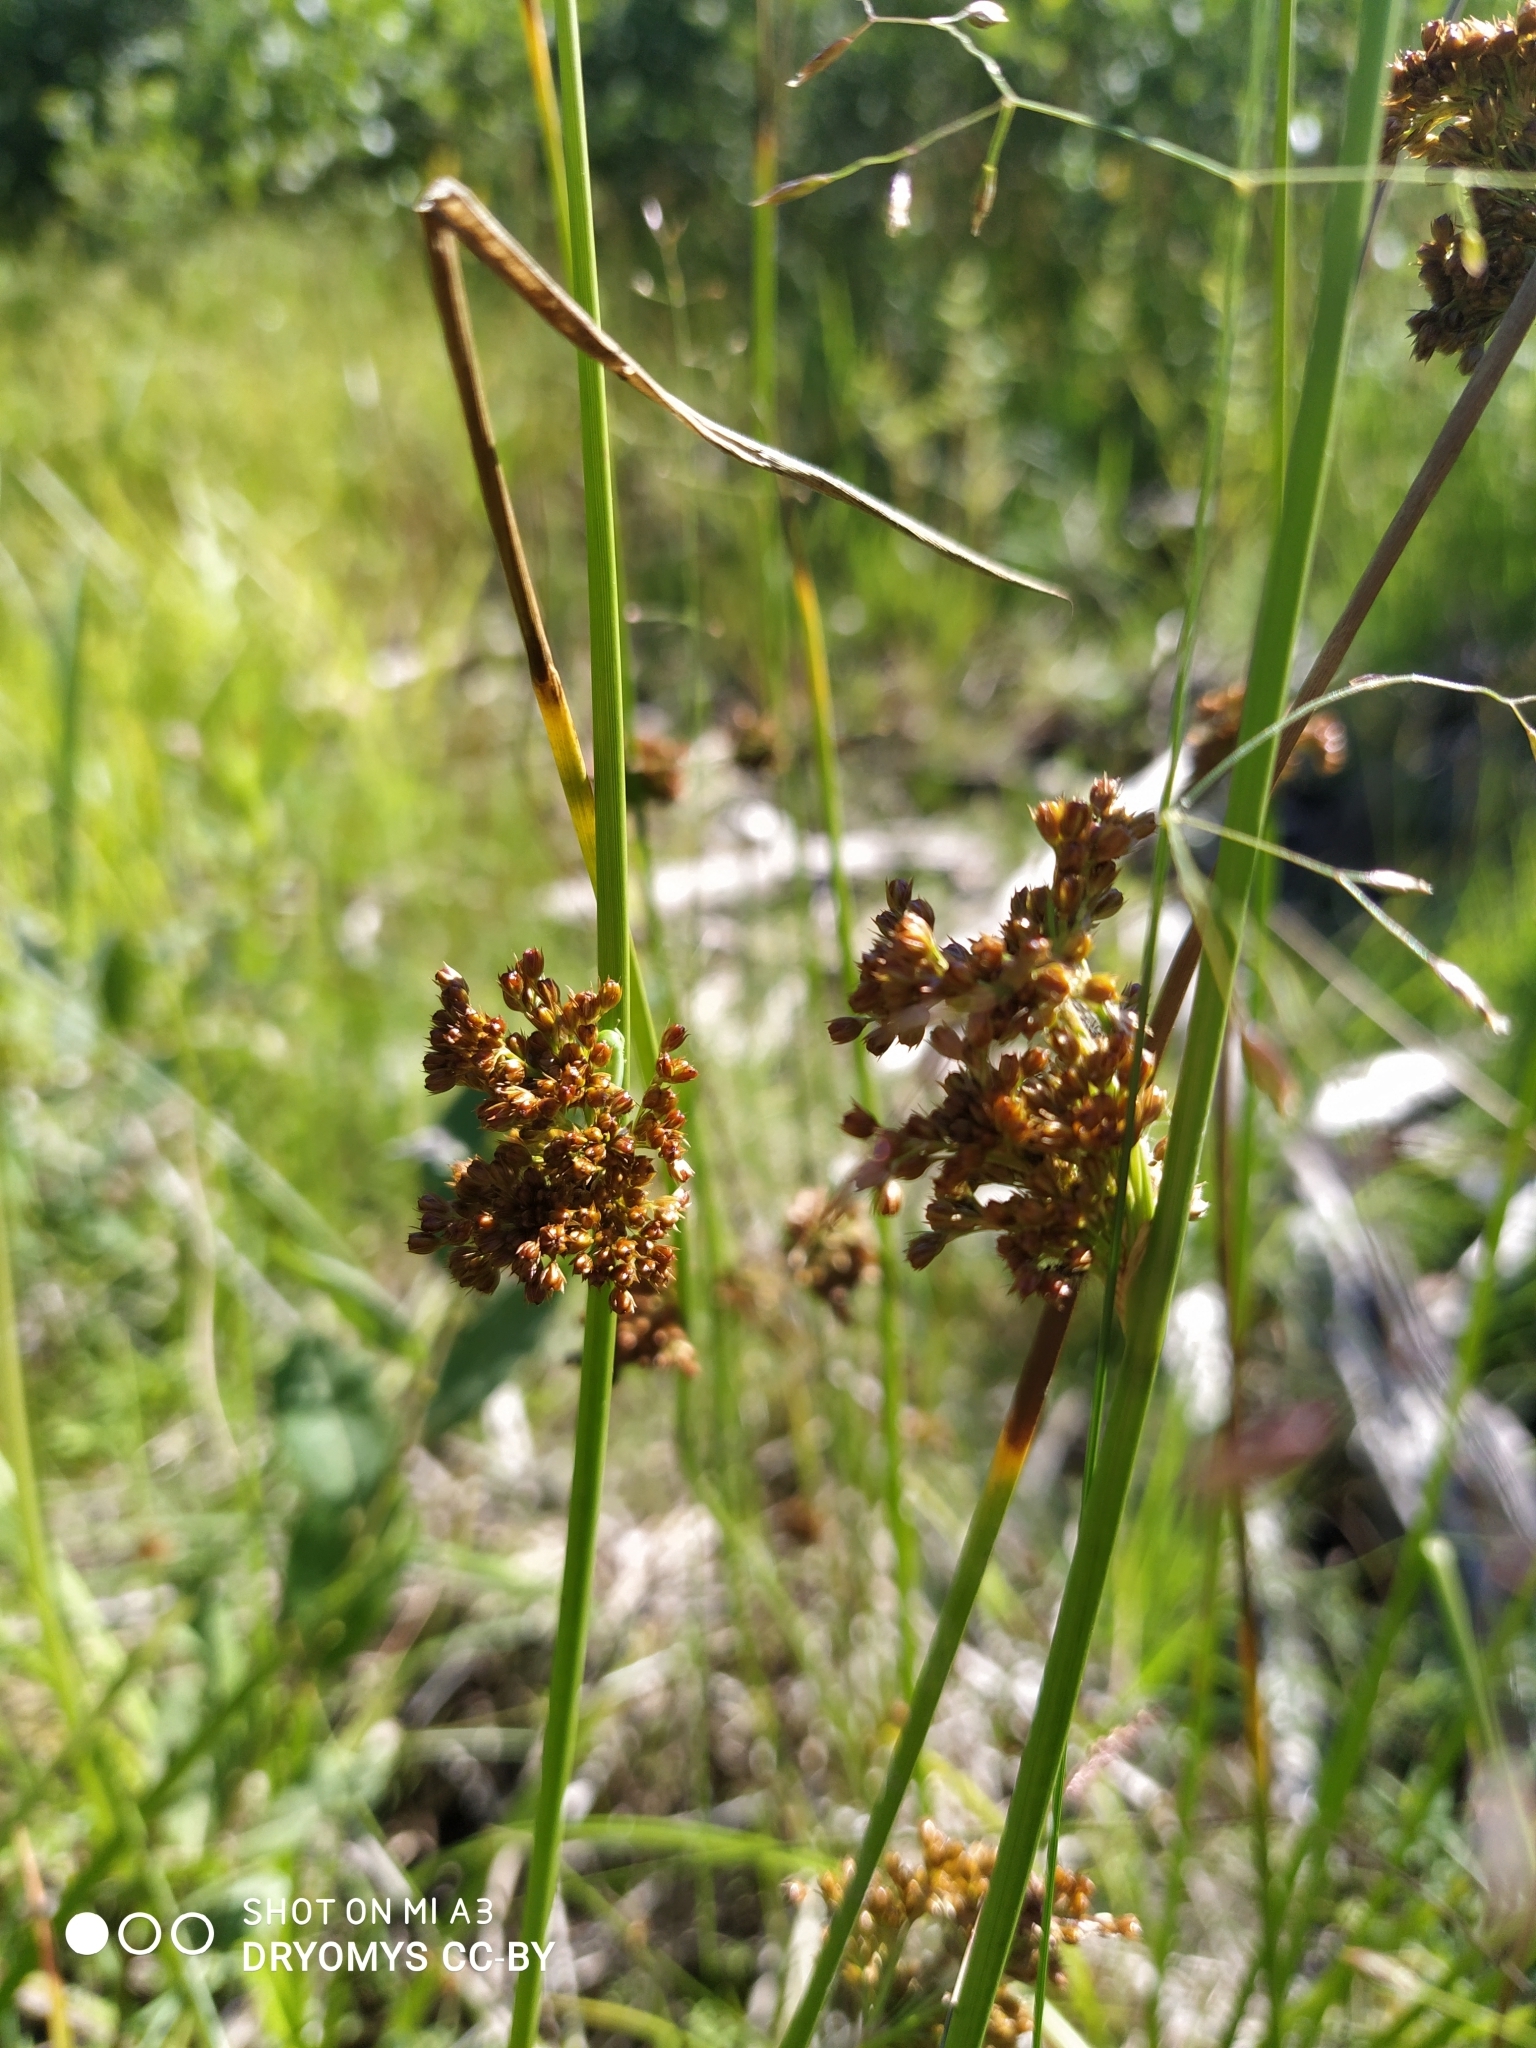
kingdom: Plantae
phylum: Tracheophyta
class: Liliopsida
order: Poales
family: Juncaceae
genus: Juncus
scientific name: Juncus effusus
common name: Soft rush
